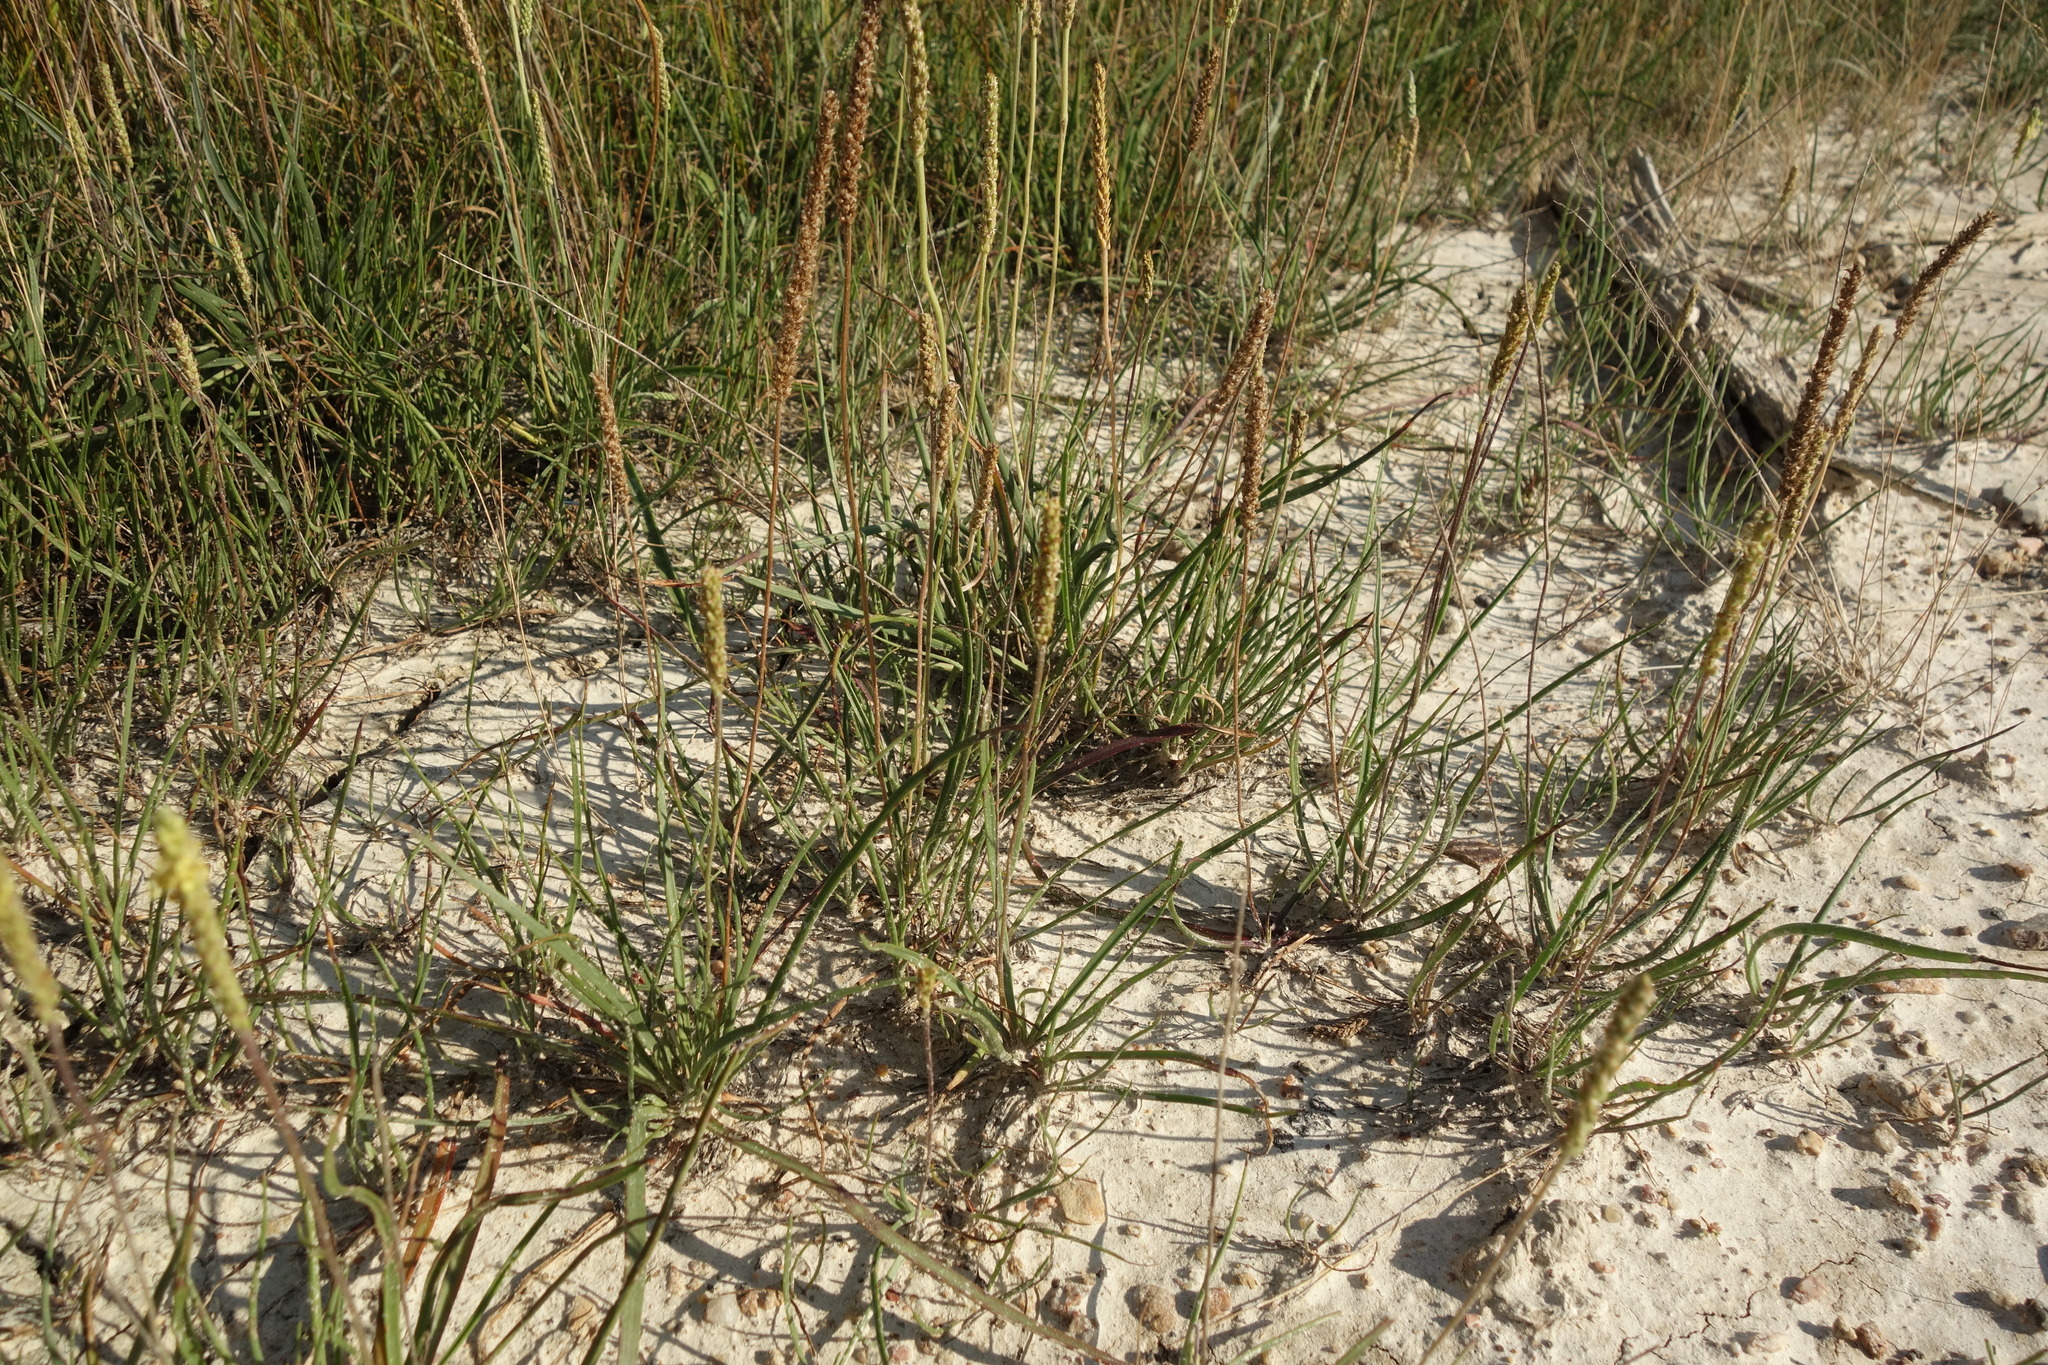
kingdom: Plantae
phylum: Tracheophyta
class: Magnoliopsida
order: Lamiales
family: Plantaginaceae
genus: Plantago
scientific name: Plantago salsa
